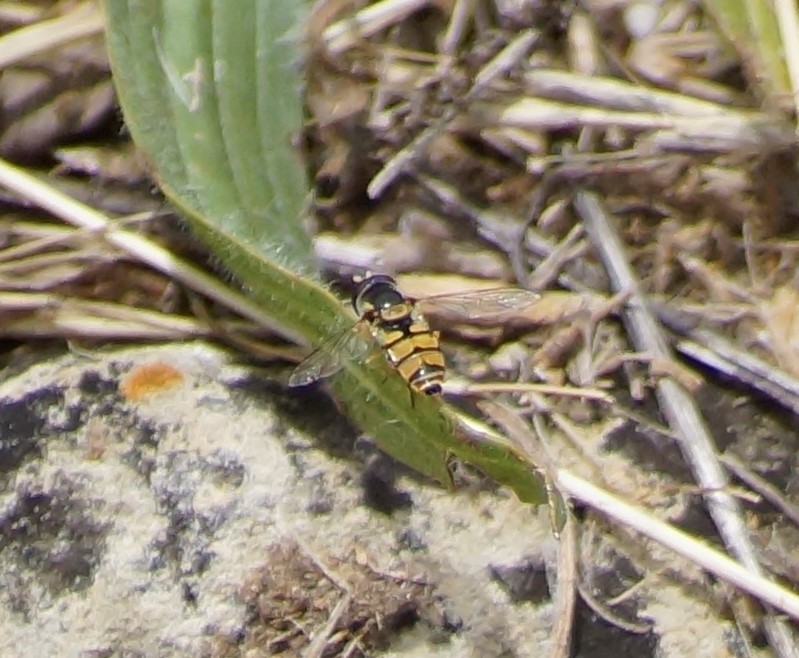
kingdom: Animalia
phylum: Arthropoda
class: Insecta
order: Diptera
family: Syrphidae
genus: Simosyrphus
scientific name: Simosyrphus grandicornis
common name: Hoverfly
